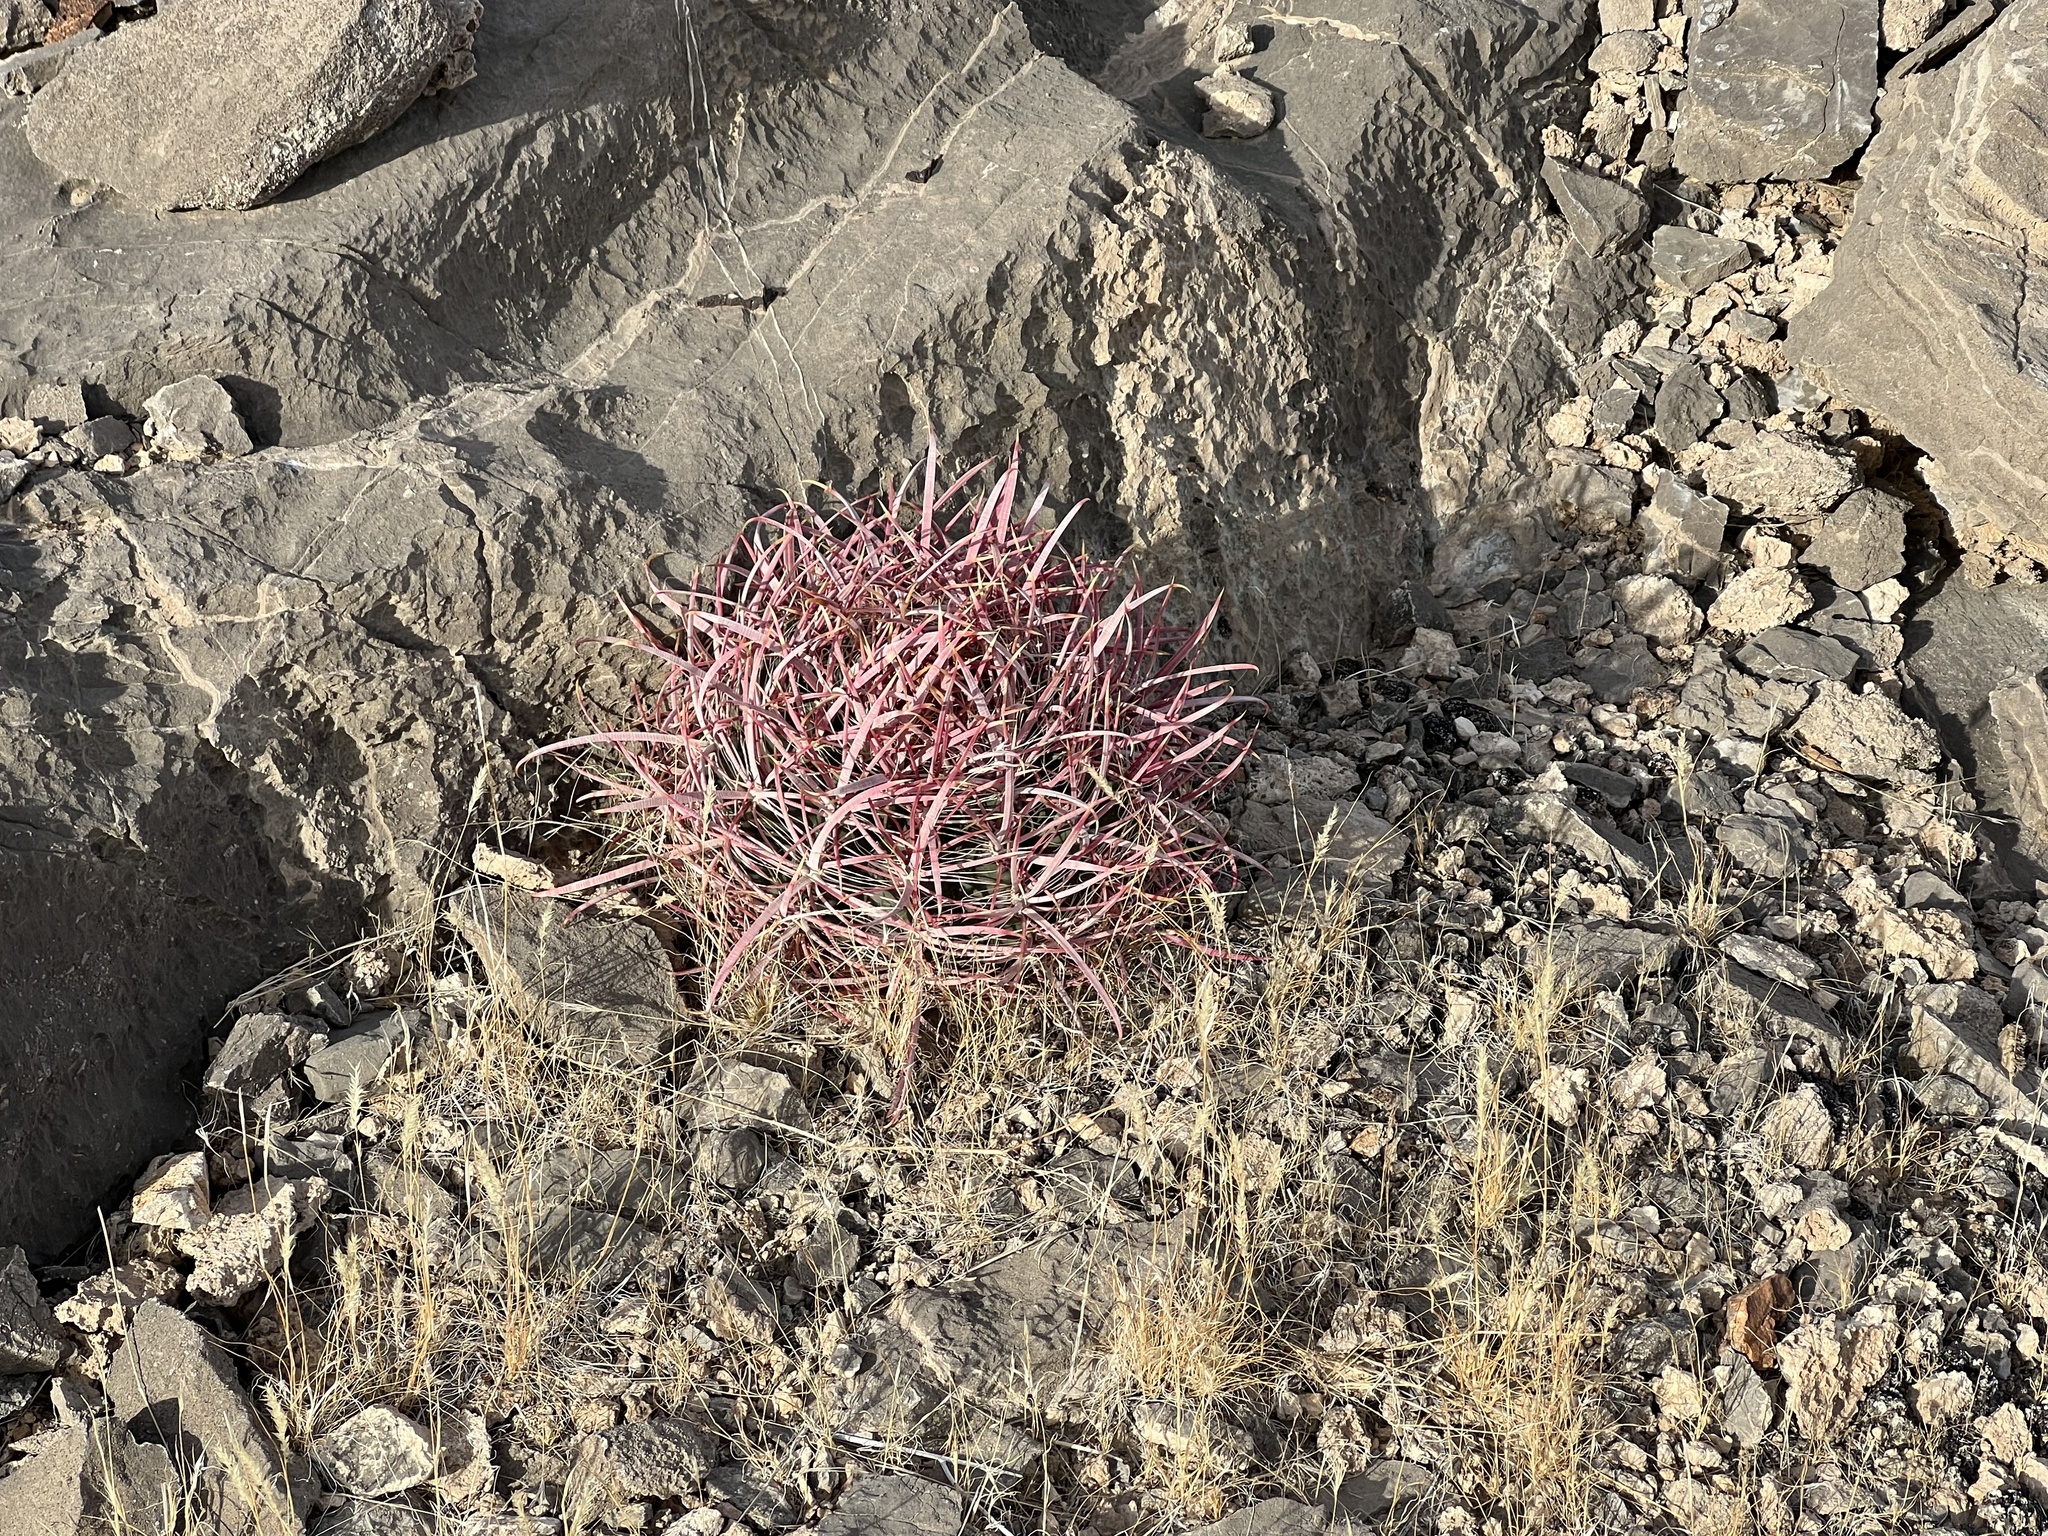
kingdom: Plantae
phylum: Tracheophyta
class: Magnoliopsida
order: Caryophyllales
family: Cactaceae
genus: Ferocactus
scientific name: Ferocactus cylindraceus
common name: California barrel cactus
